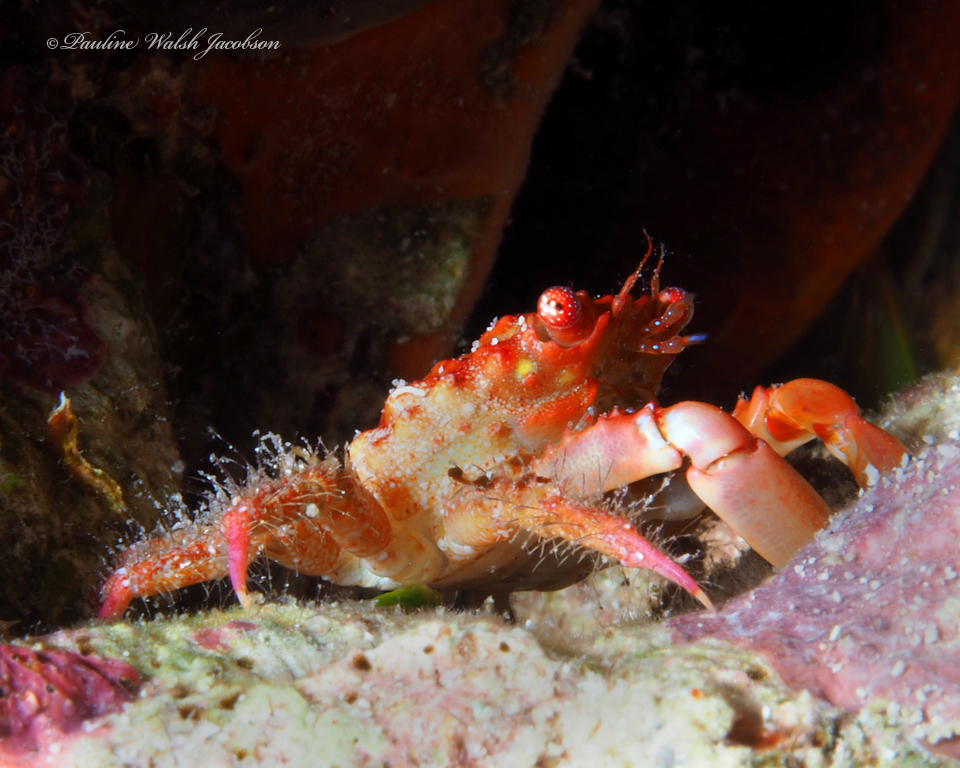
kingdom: Animalia
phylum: Arthropoda
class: Malacostraca
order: Decapoda
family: Mithracidae
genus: Mithraculus
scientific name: Mithraculus forceps
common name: Red-ridged clinging crab
